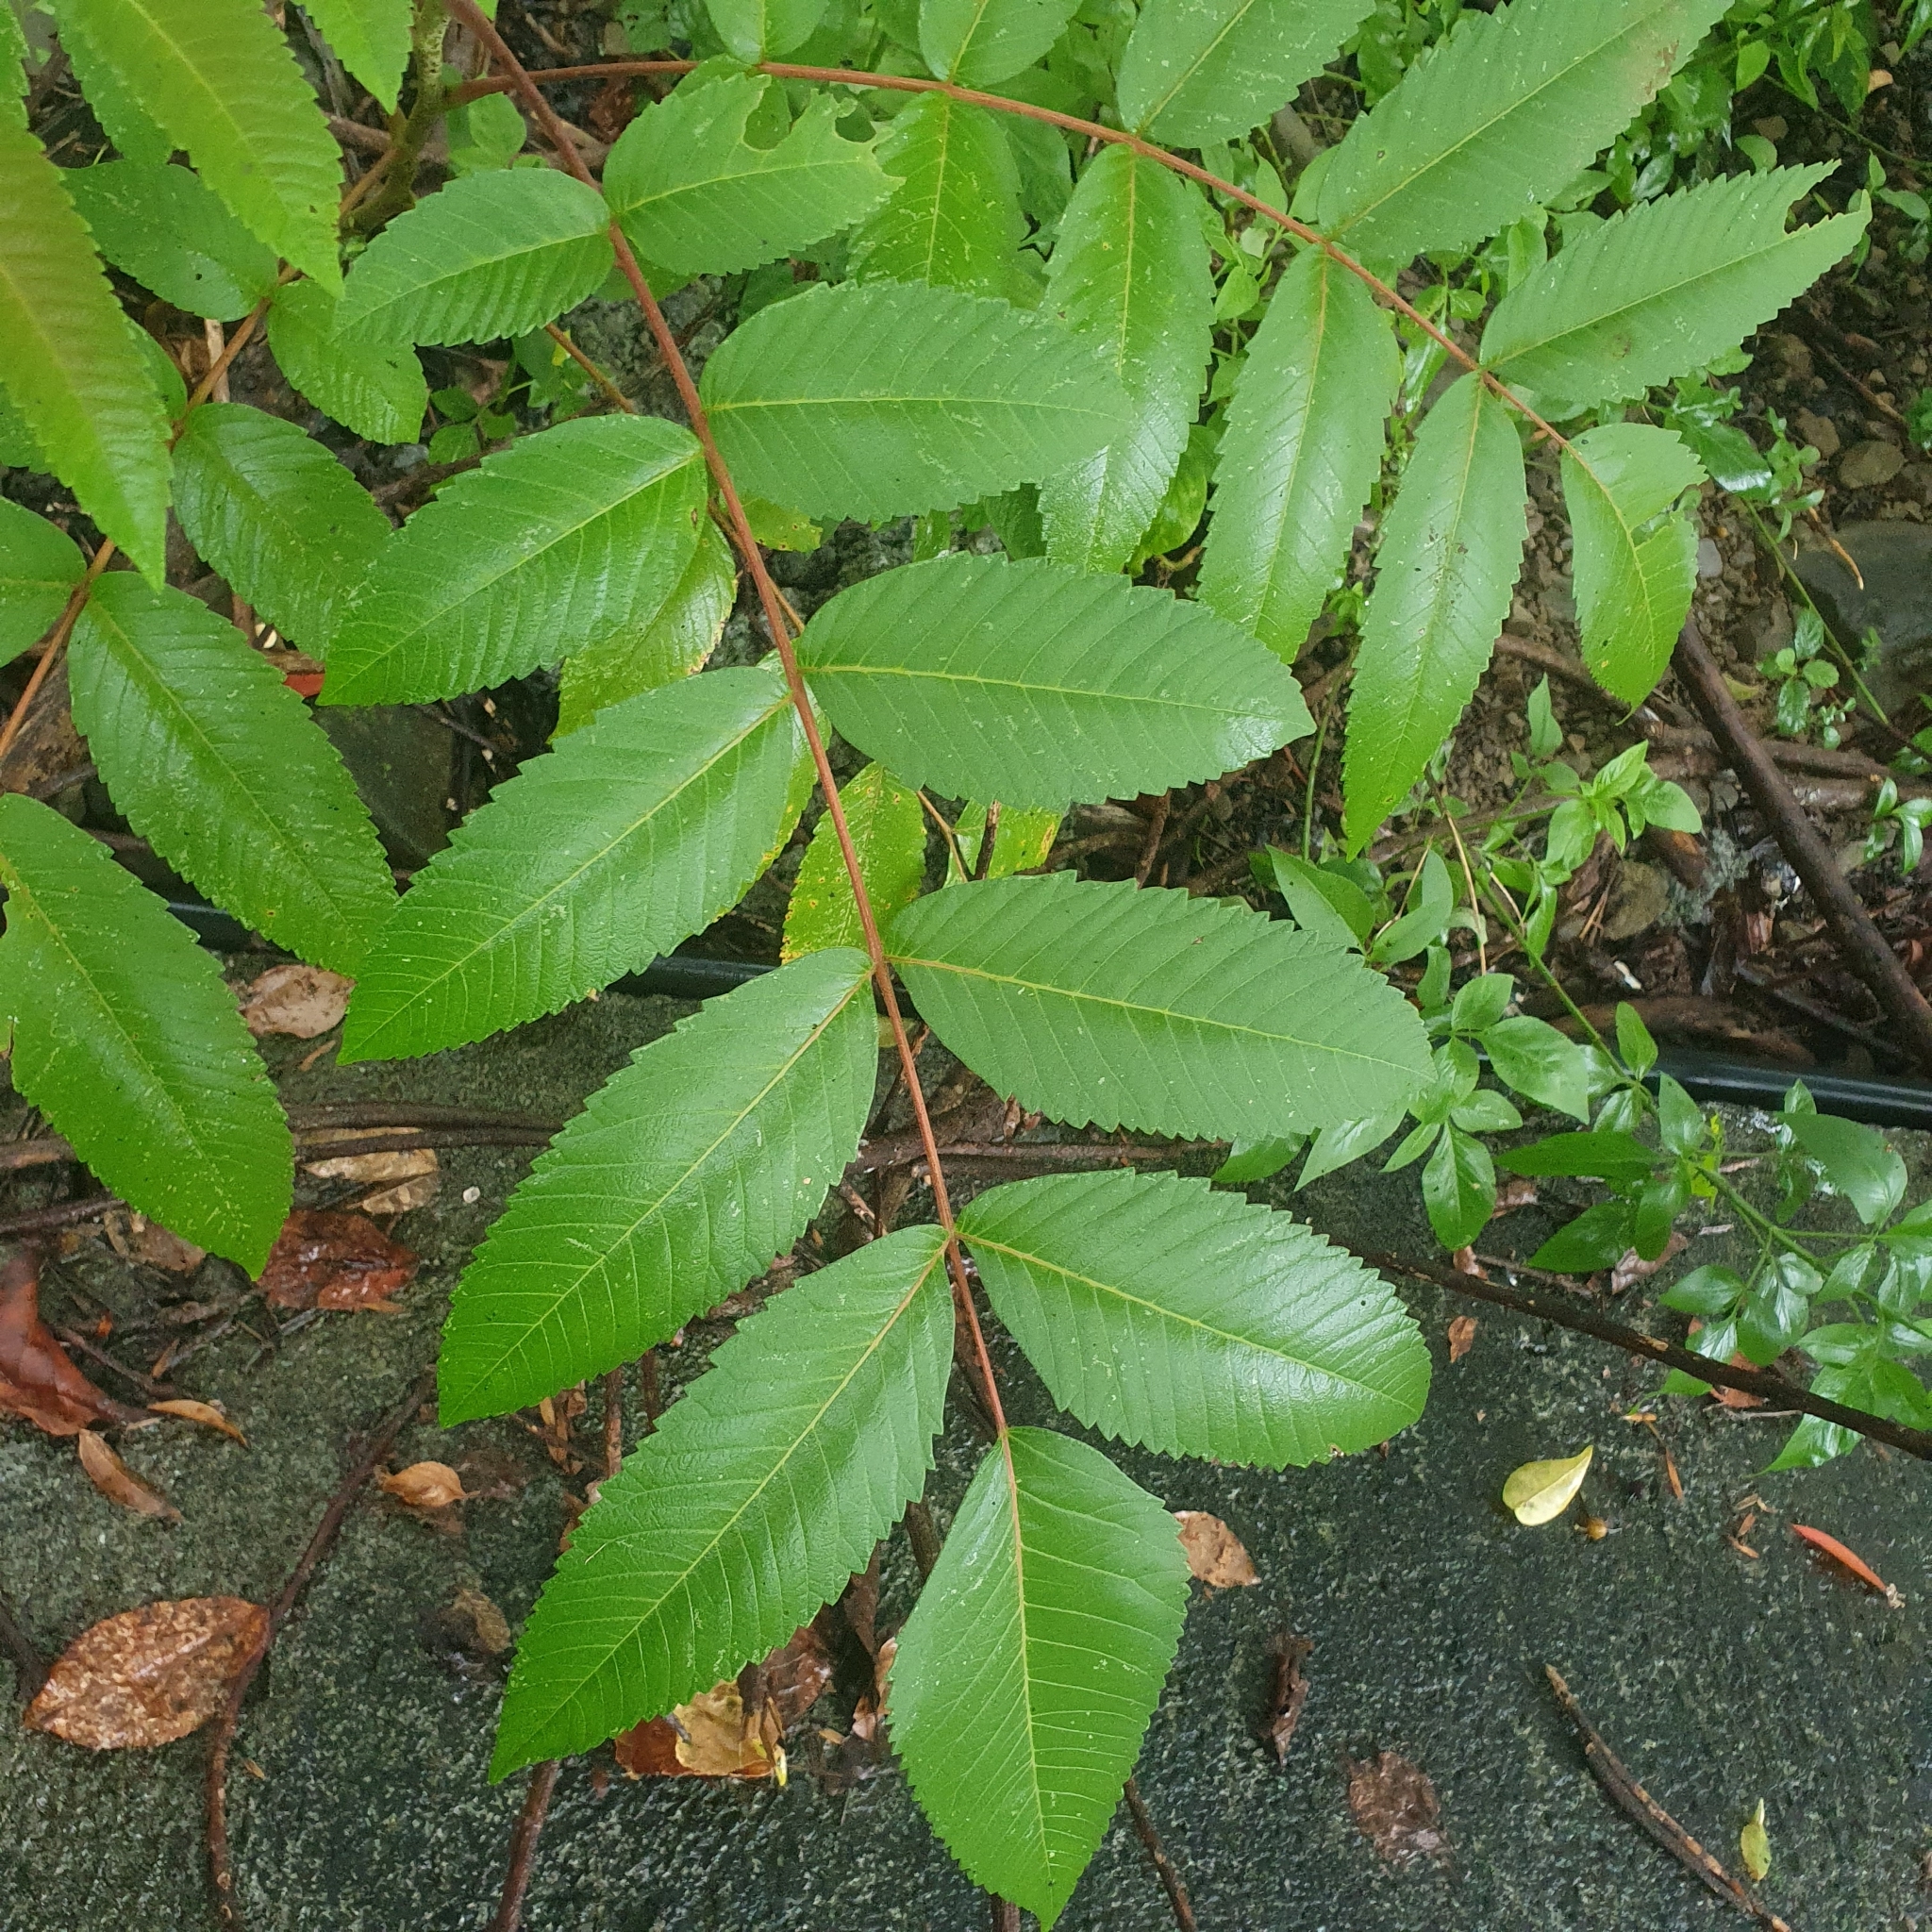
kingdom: Plantae
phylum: Tracheophyta
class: Magnoliopsida
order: Sapindales
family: Anacardiaceae
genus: Rhus
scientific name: Rhus chinensis
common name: Chinese gall
